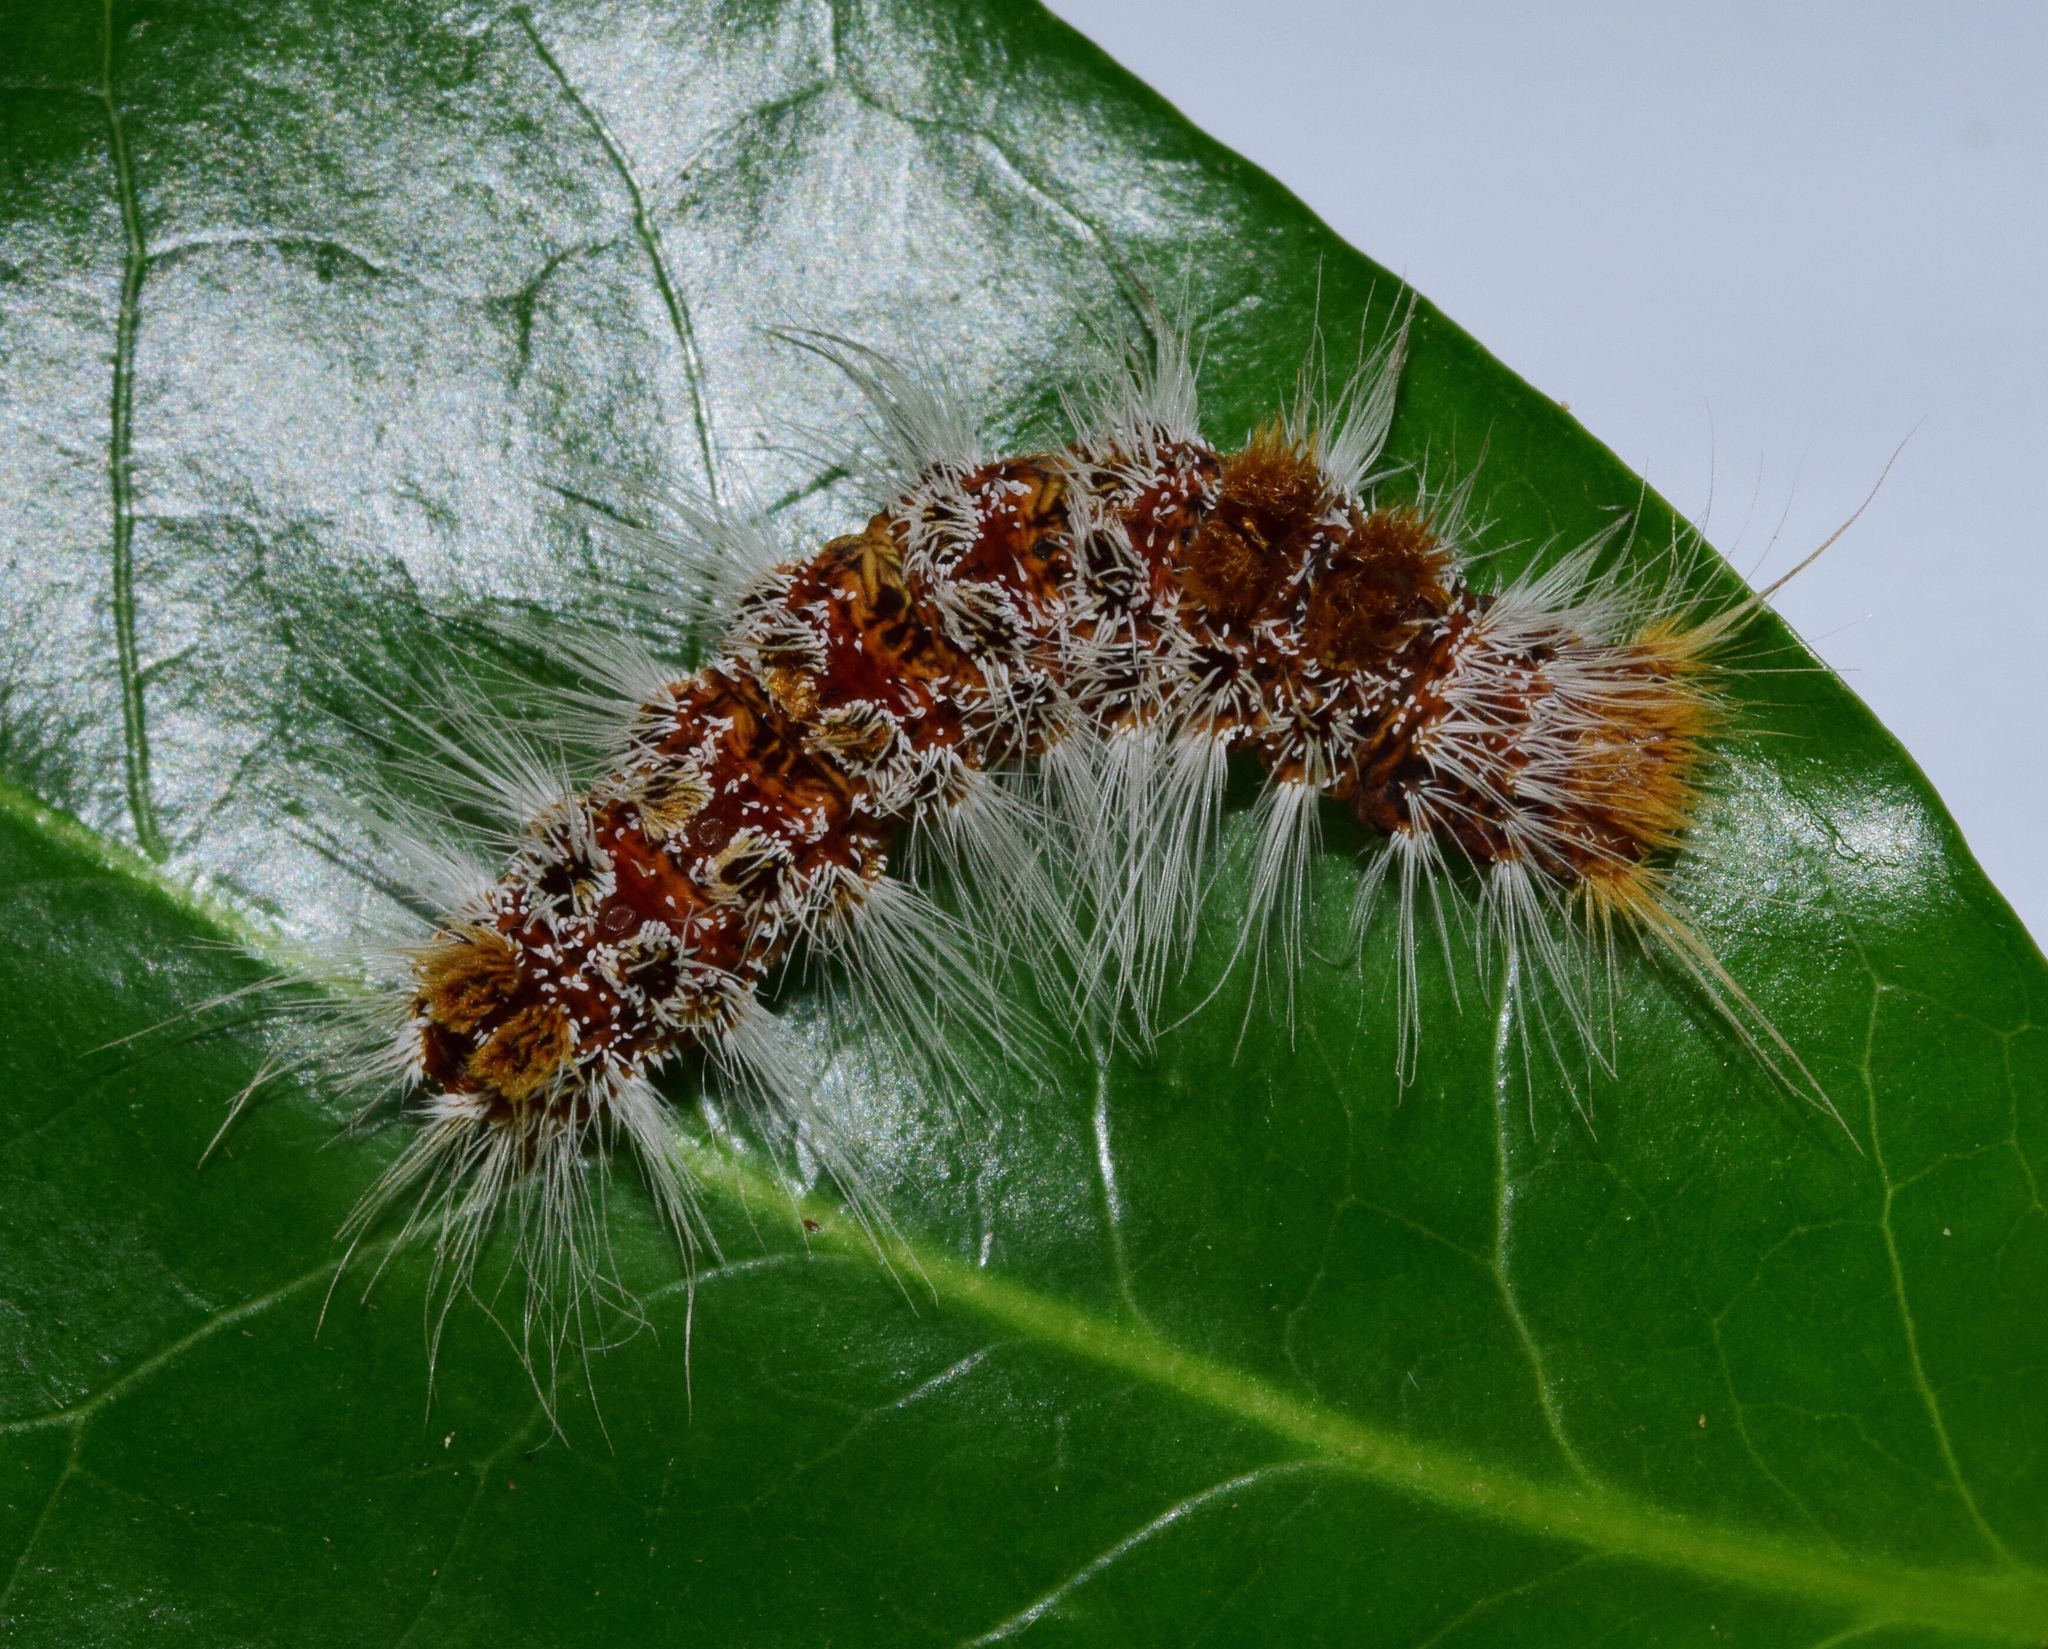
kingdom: Animalia
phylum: Arthropoda
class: Insecta
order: Lepidoptera
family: Erebidae
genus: Euproctis
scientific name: Euproctis rufopunctata
